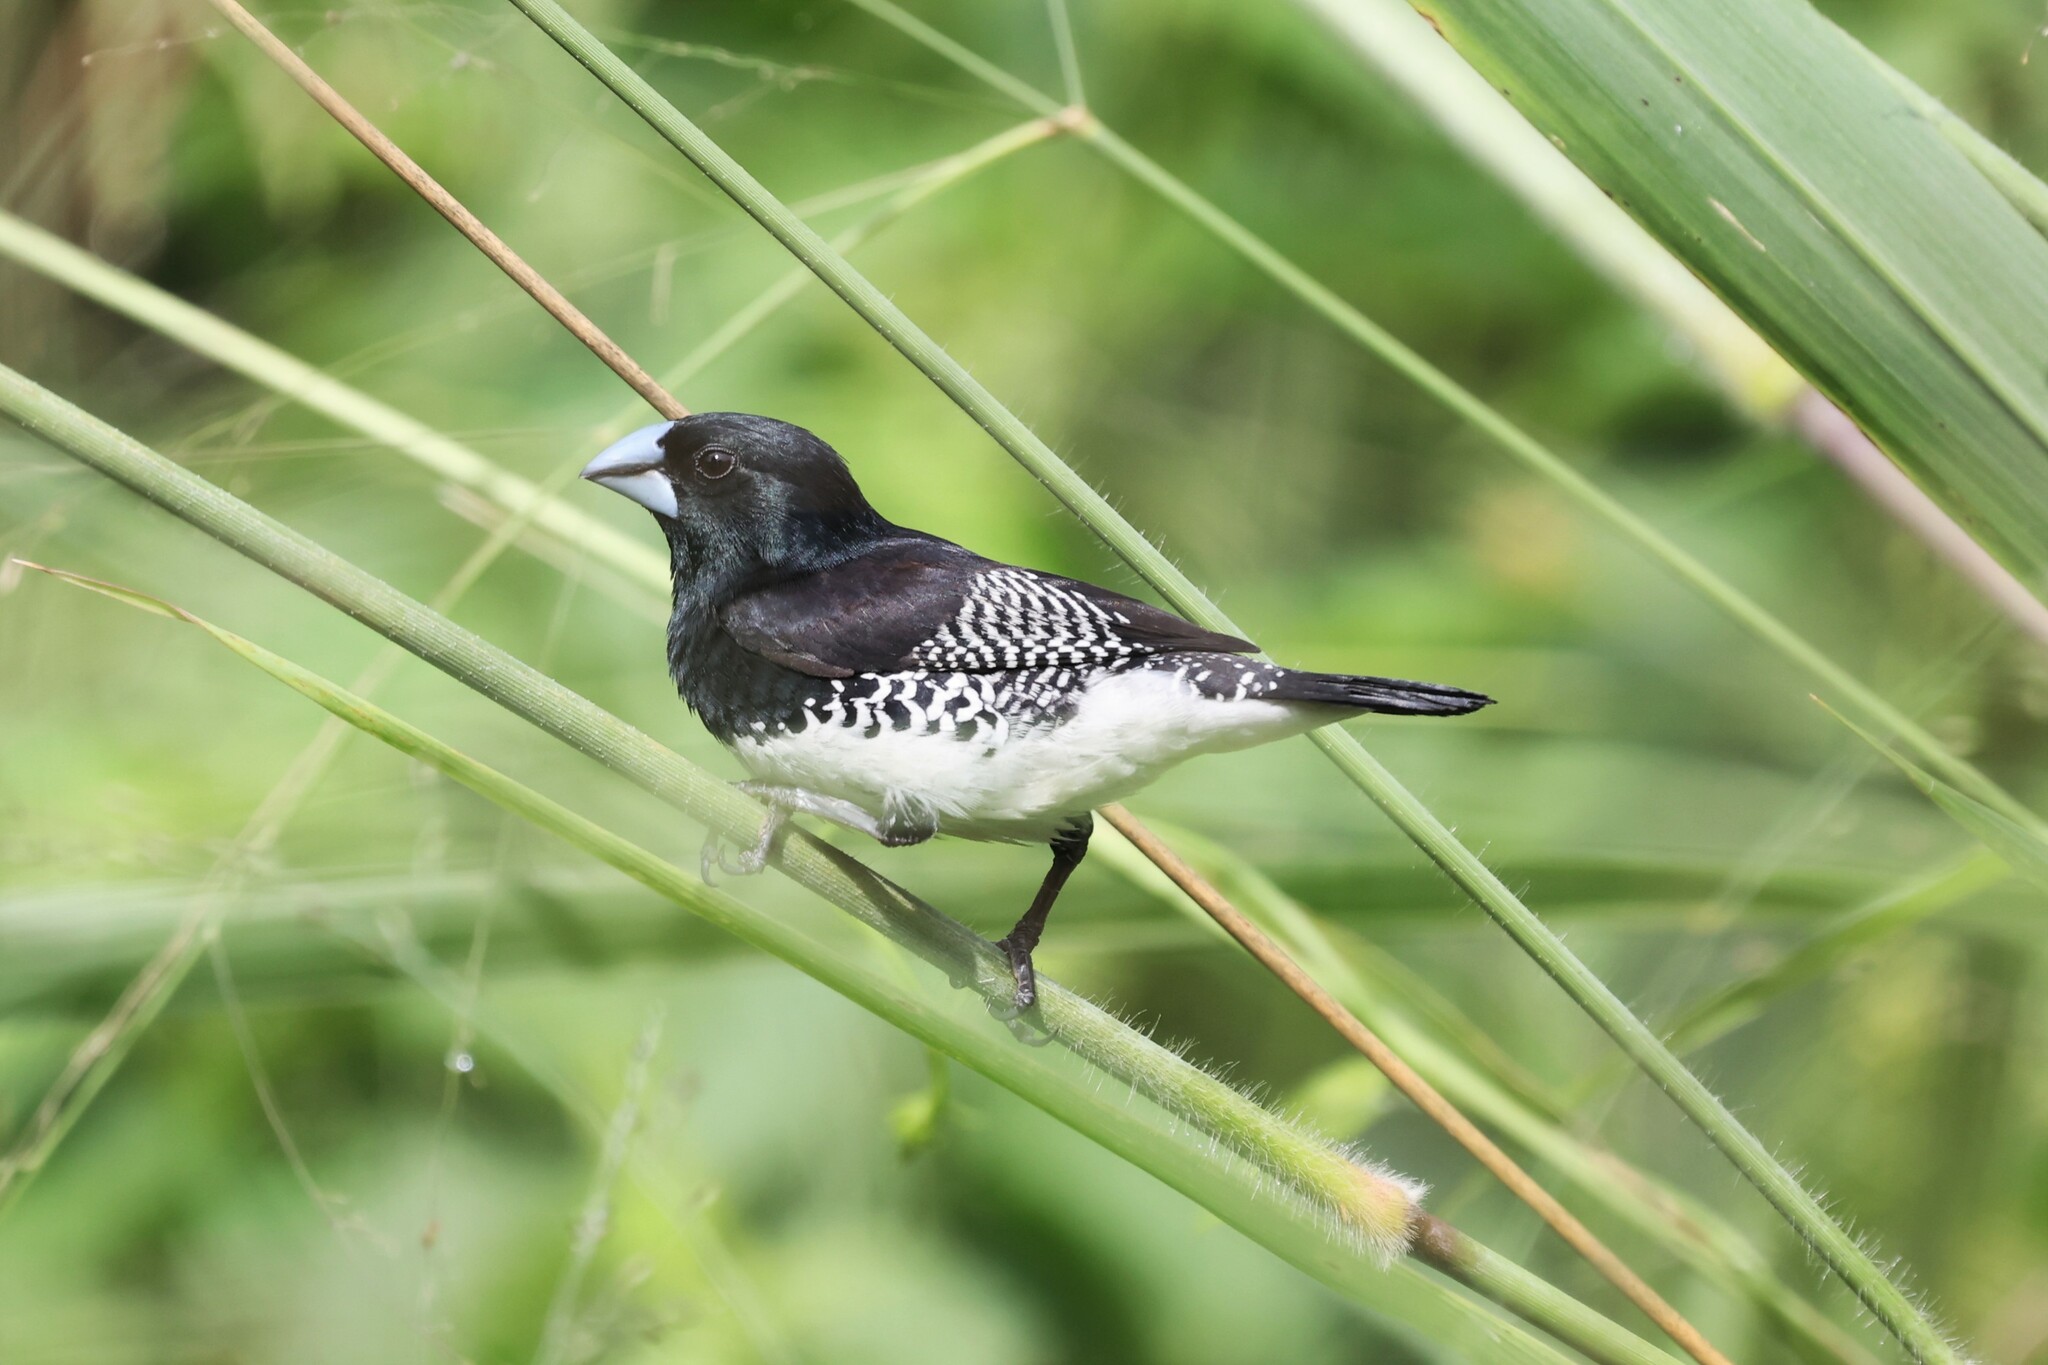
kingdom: Animalia
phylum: Chordata
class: Aves
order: Passeriformes
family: Estrildidae
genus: Lonchura
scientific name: Lonchura bicolor
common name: Black-and-white mannikin
